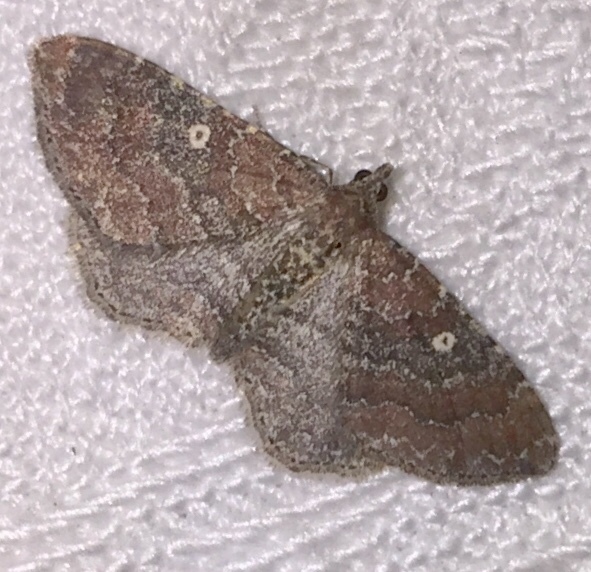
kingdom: Animalia
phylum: Arthropoda
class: Insecta
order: Lepidoptera
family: Geometridae
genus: Orthonama
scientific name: Orthonama obstipata
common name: The gem
